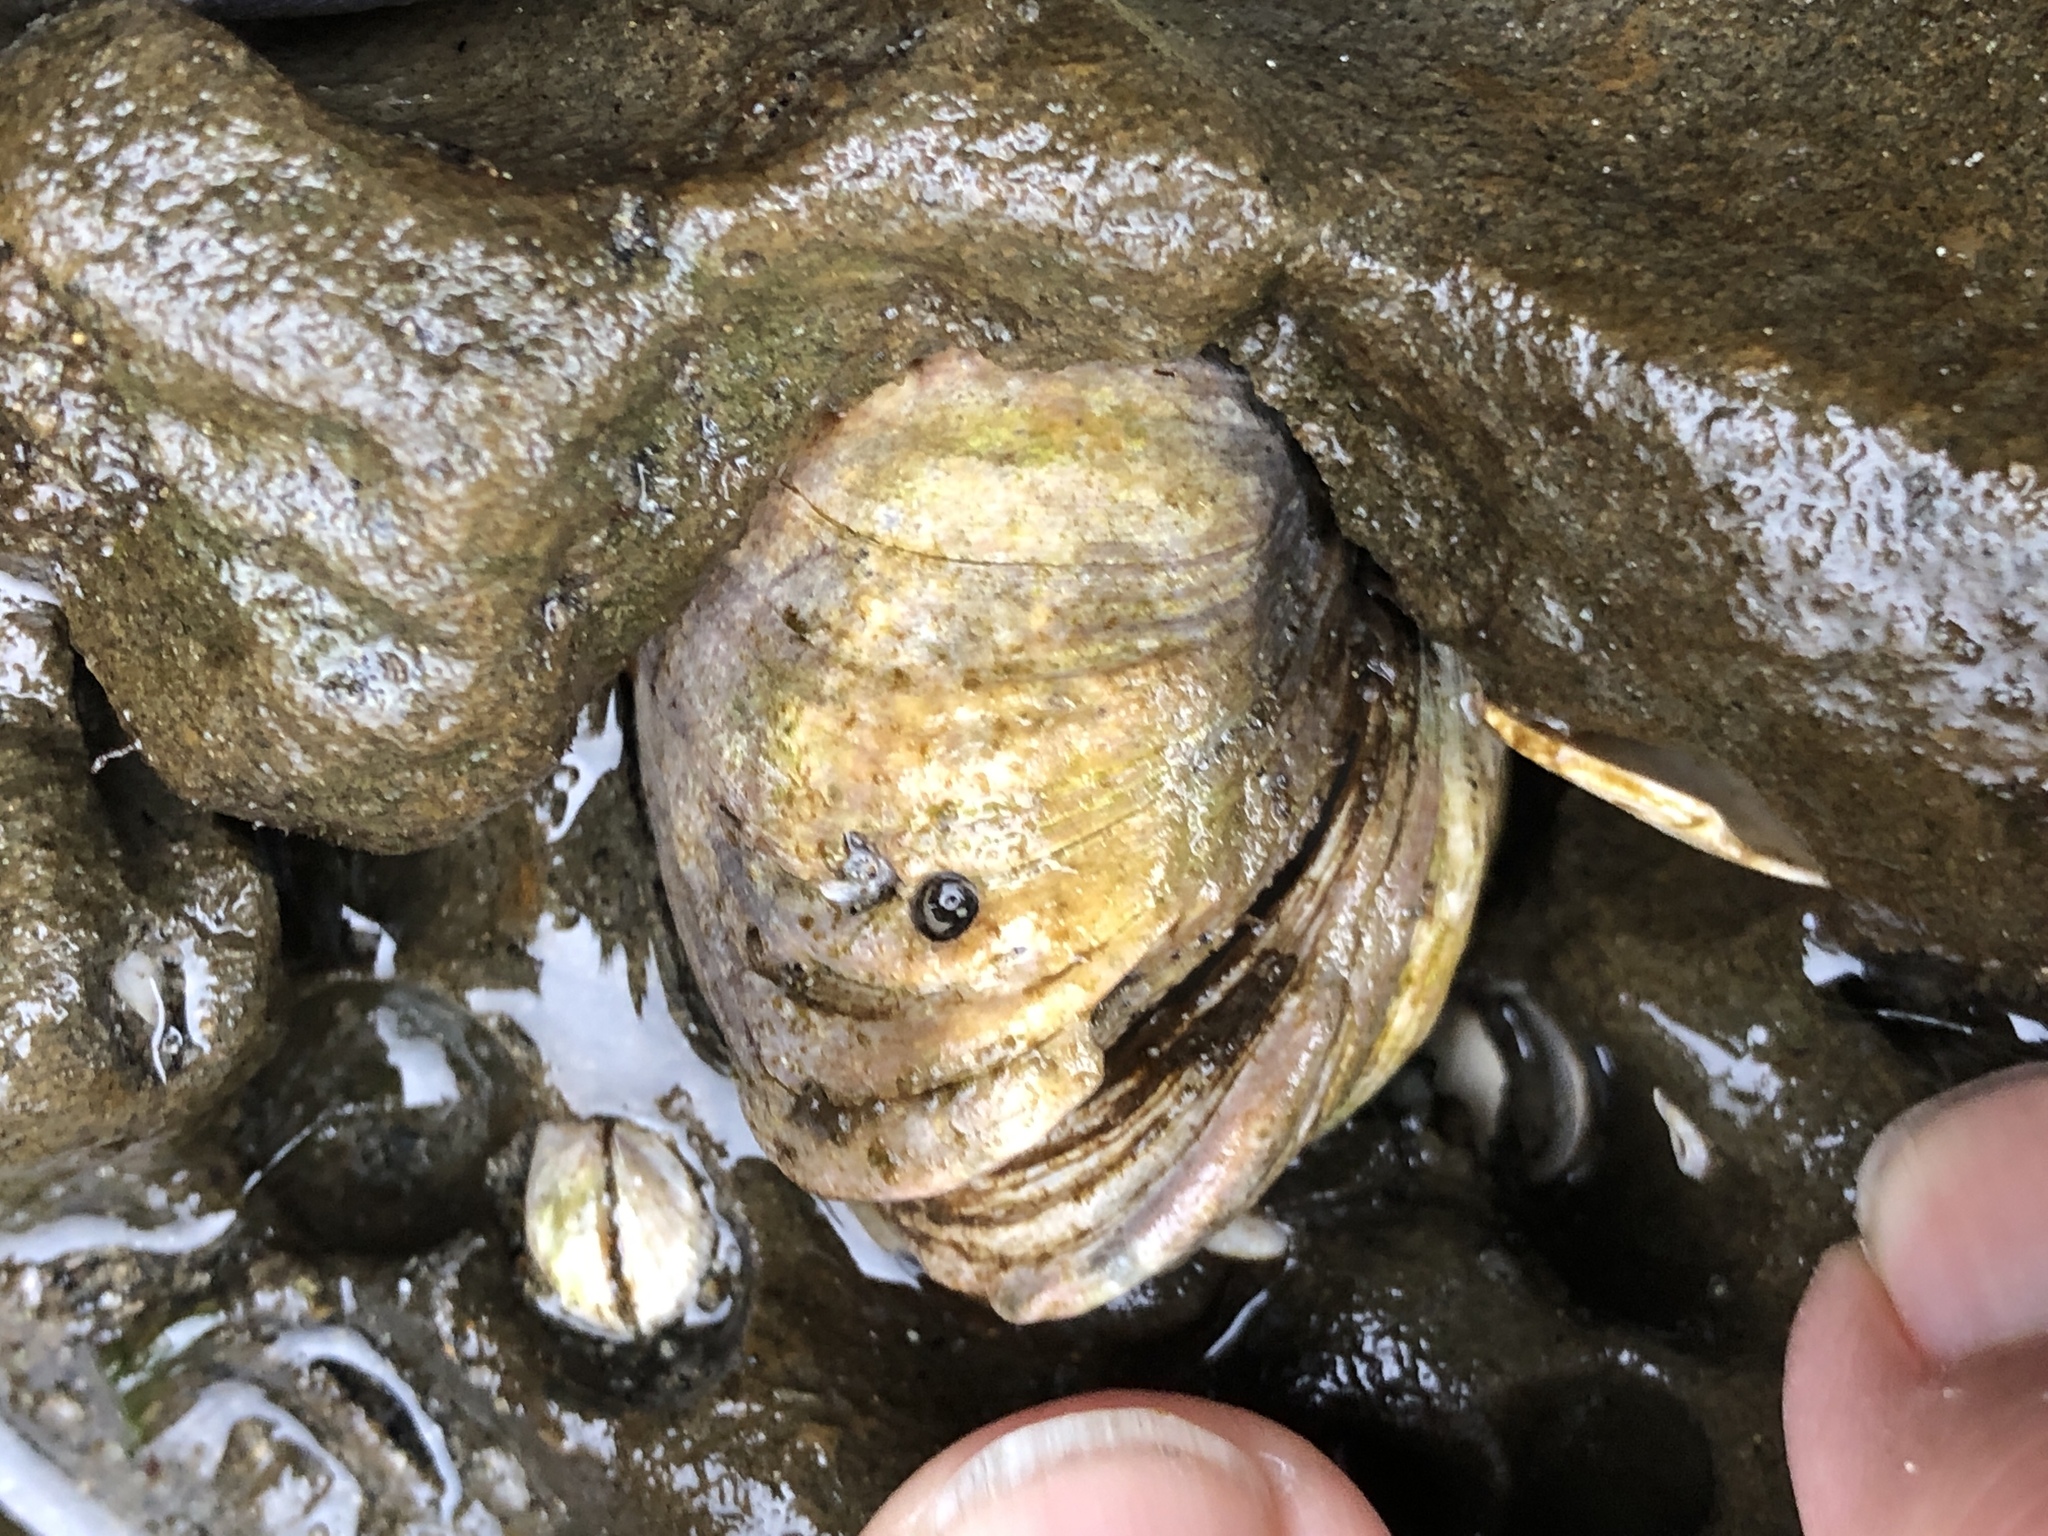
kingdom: Animalia
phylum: Mollusca
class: Bivalvia
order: Venerida
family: Veneridae
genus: Petricola
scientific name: Petricola carditoides
